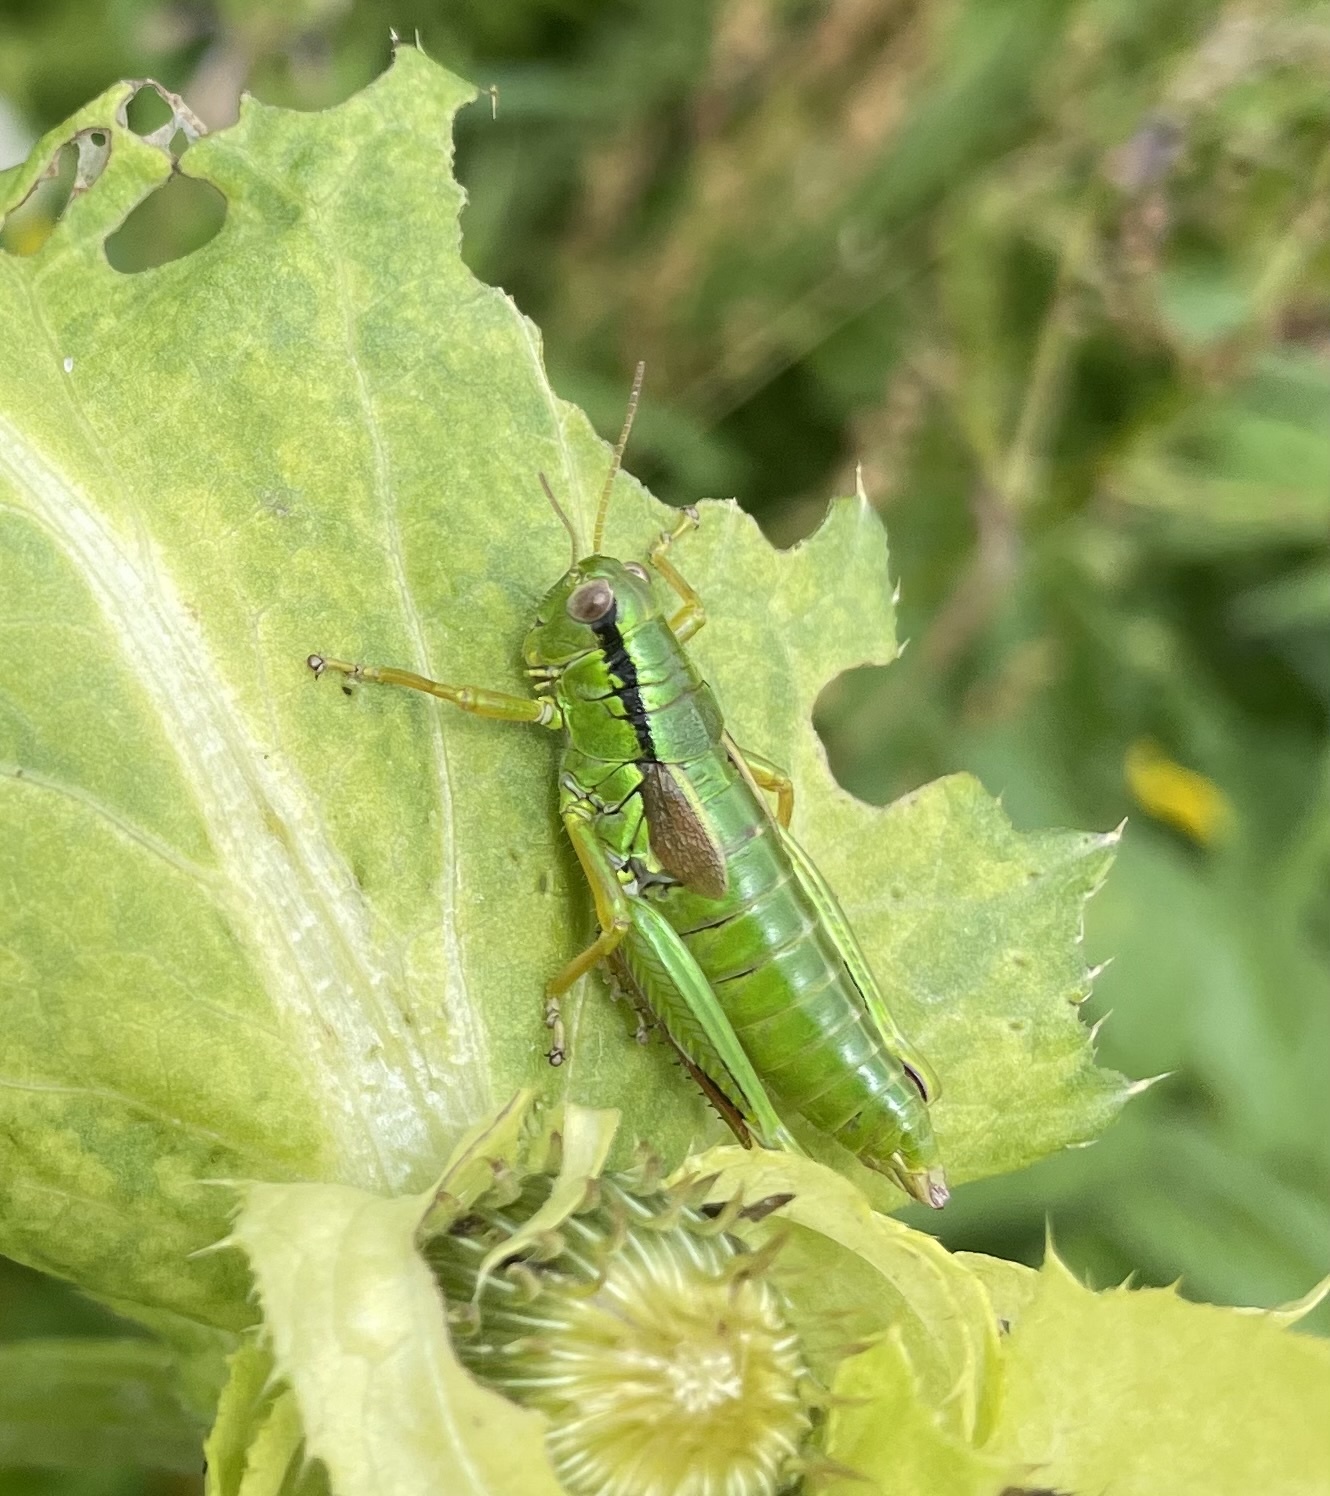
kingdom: Animalia
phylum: Arthropoda
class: Insecta
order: Orthoptera
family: Acrididae
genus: Miramella
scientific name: Miramella alpina
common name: Green mountain grasshopper
